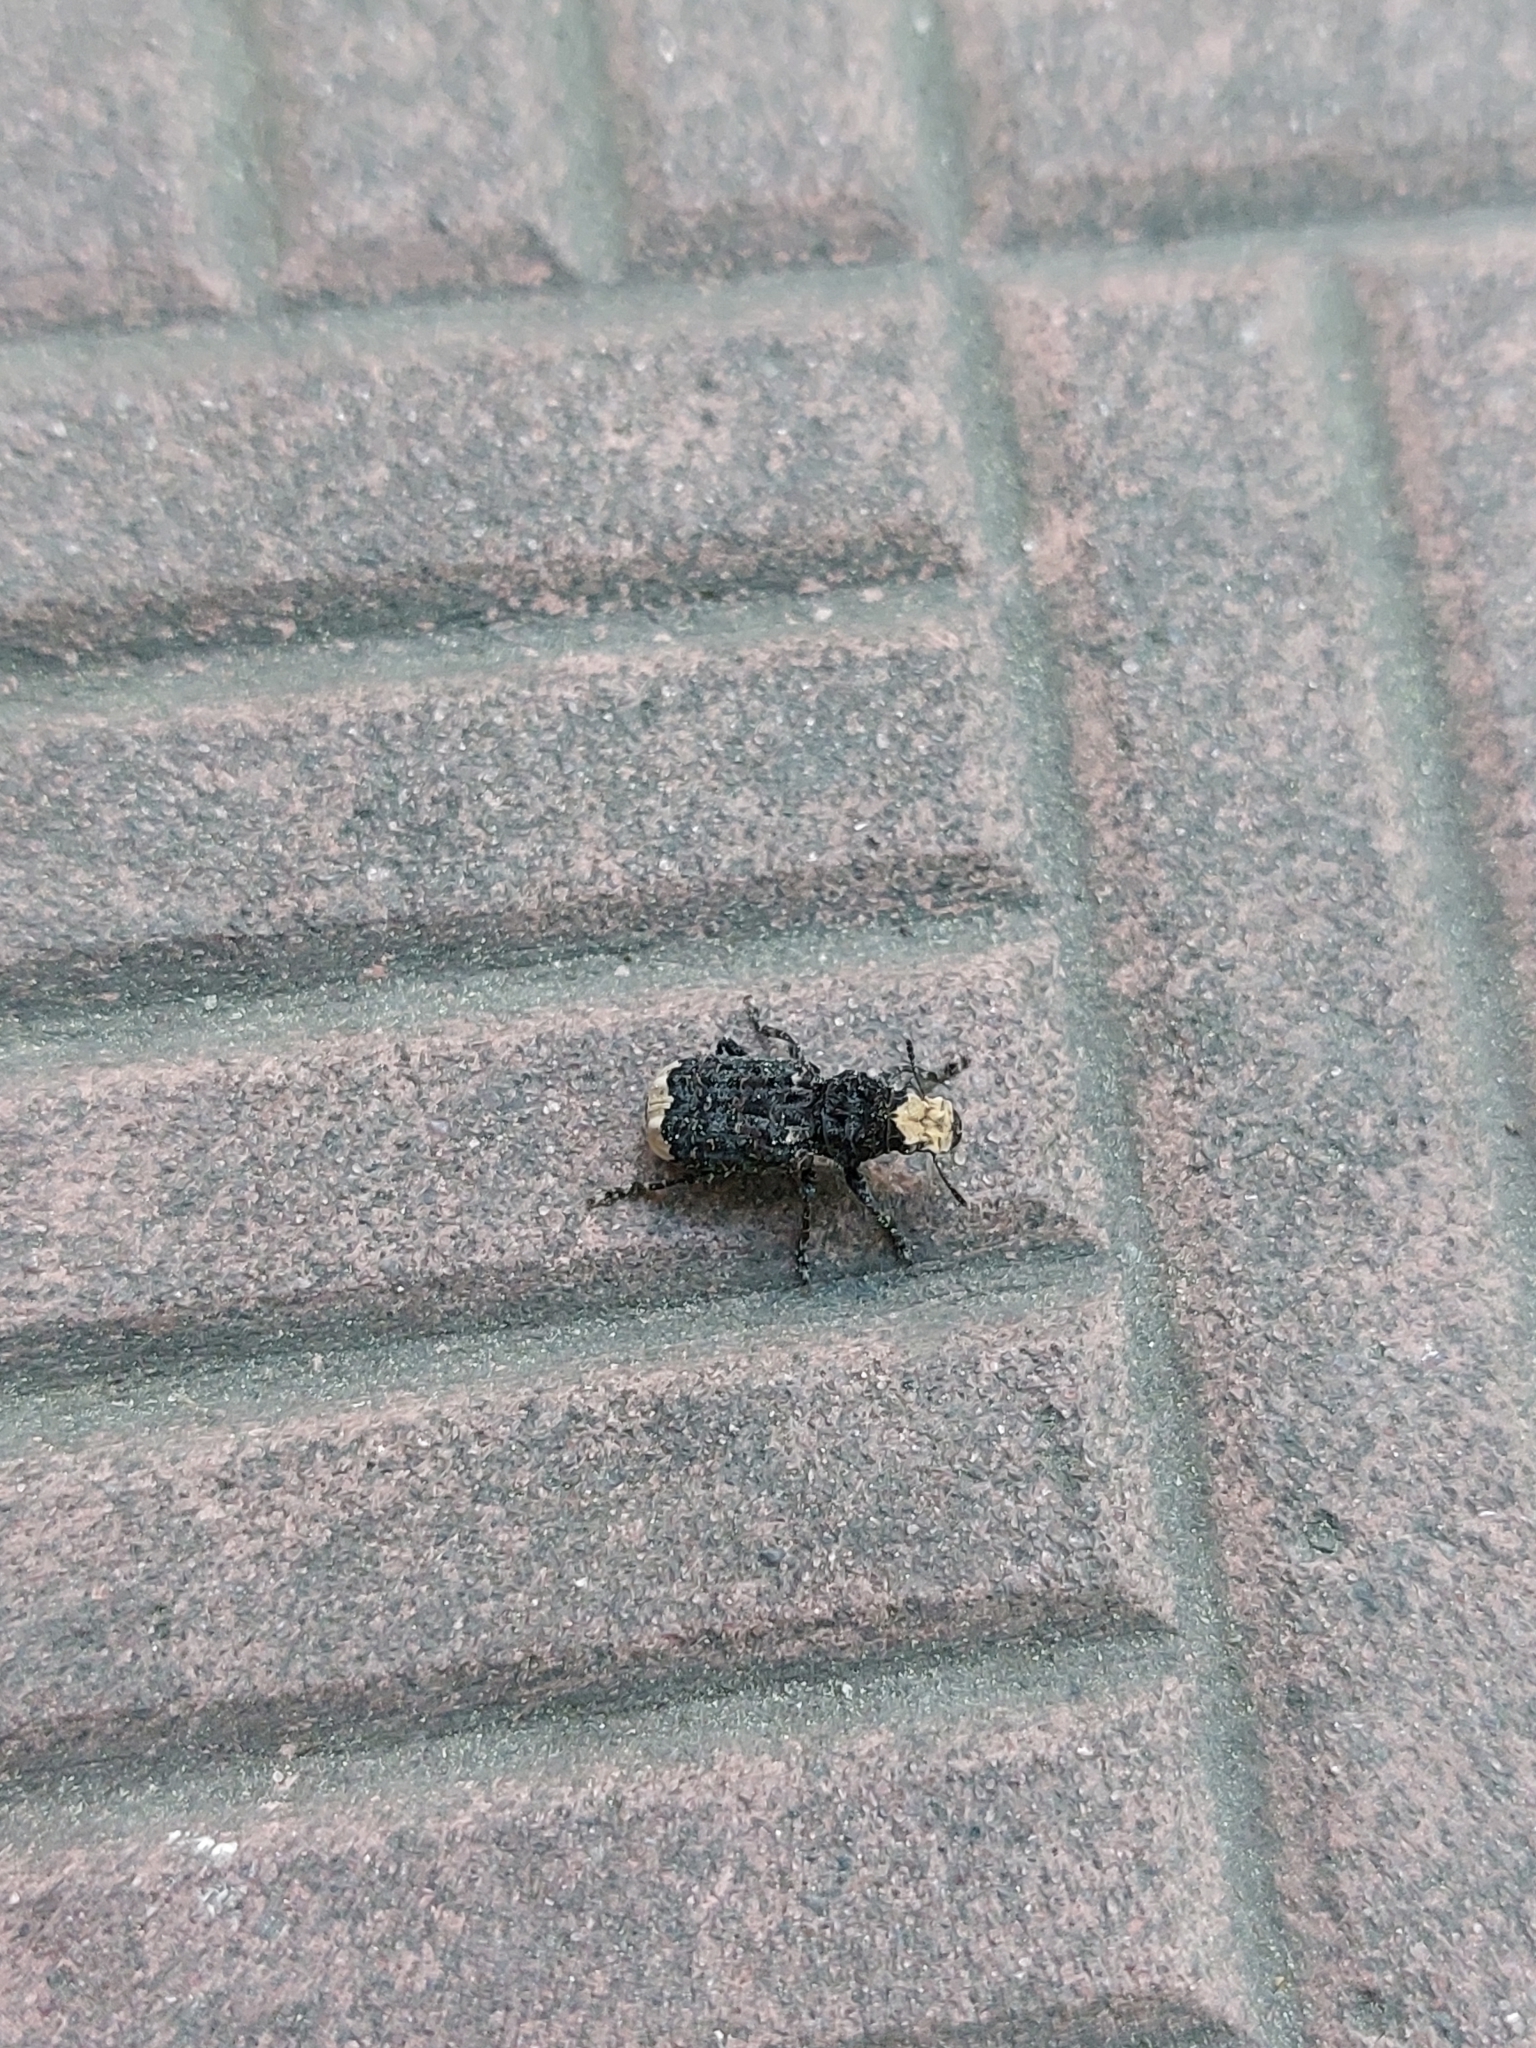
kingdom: Animalia
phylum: Arthropoda
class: Insecta
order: Coleoptera
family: Anthribidae
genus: Platyrhinus
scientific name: Platyrhinus resinosus
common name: Cramp-ball fungus weevil
